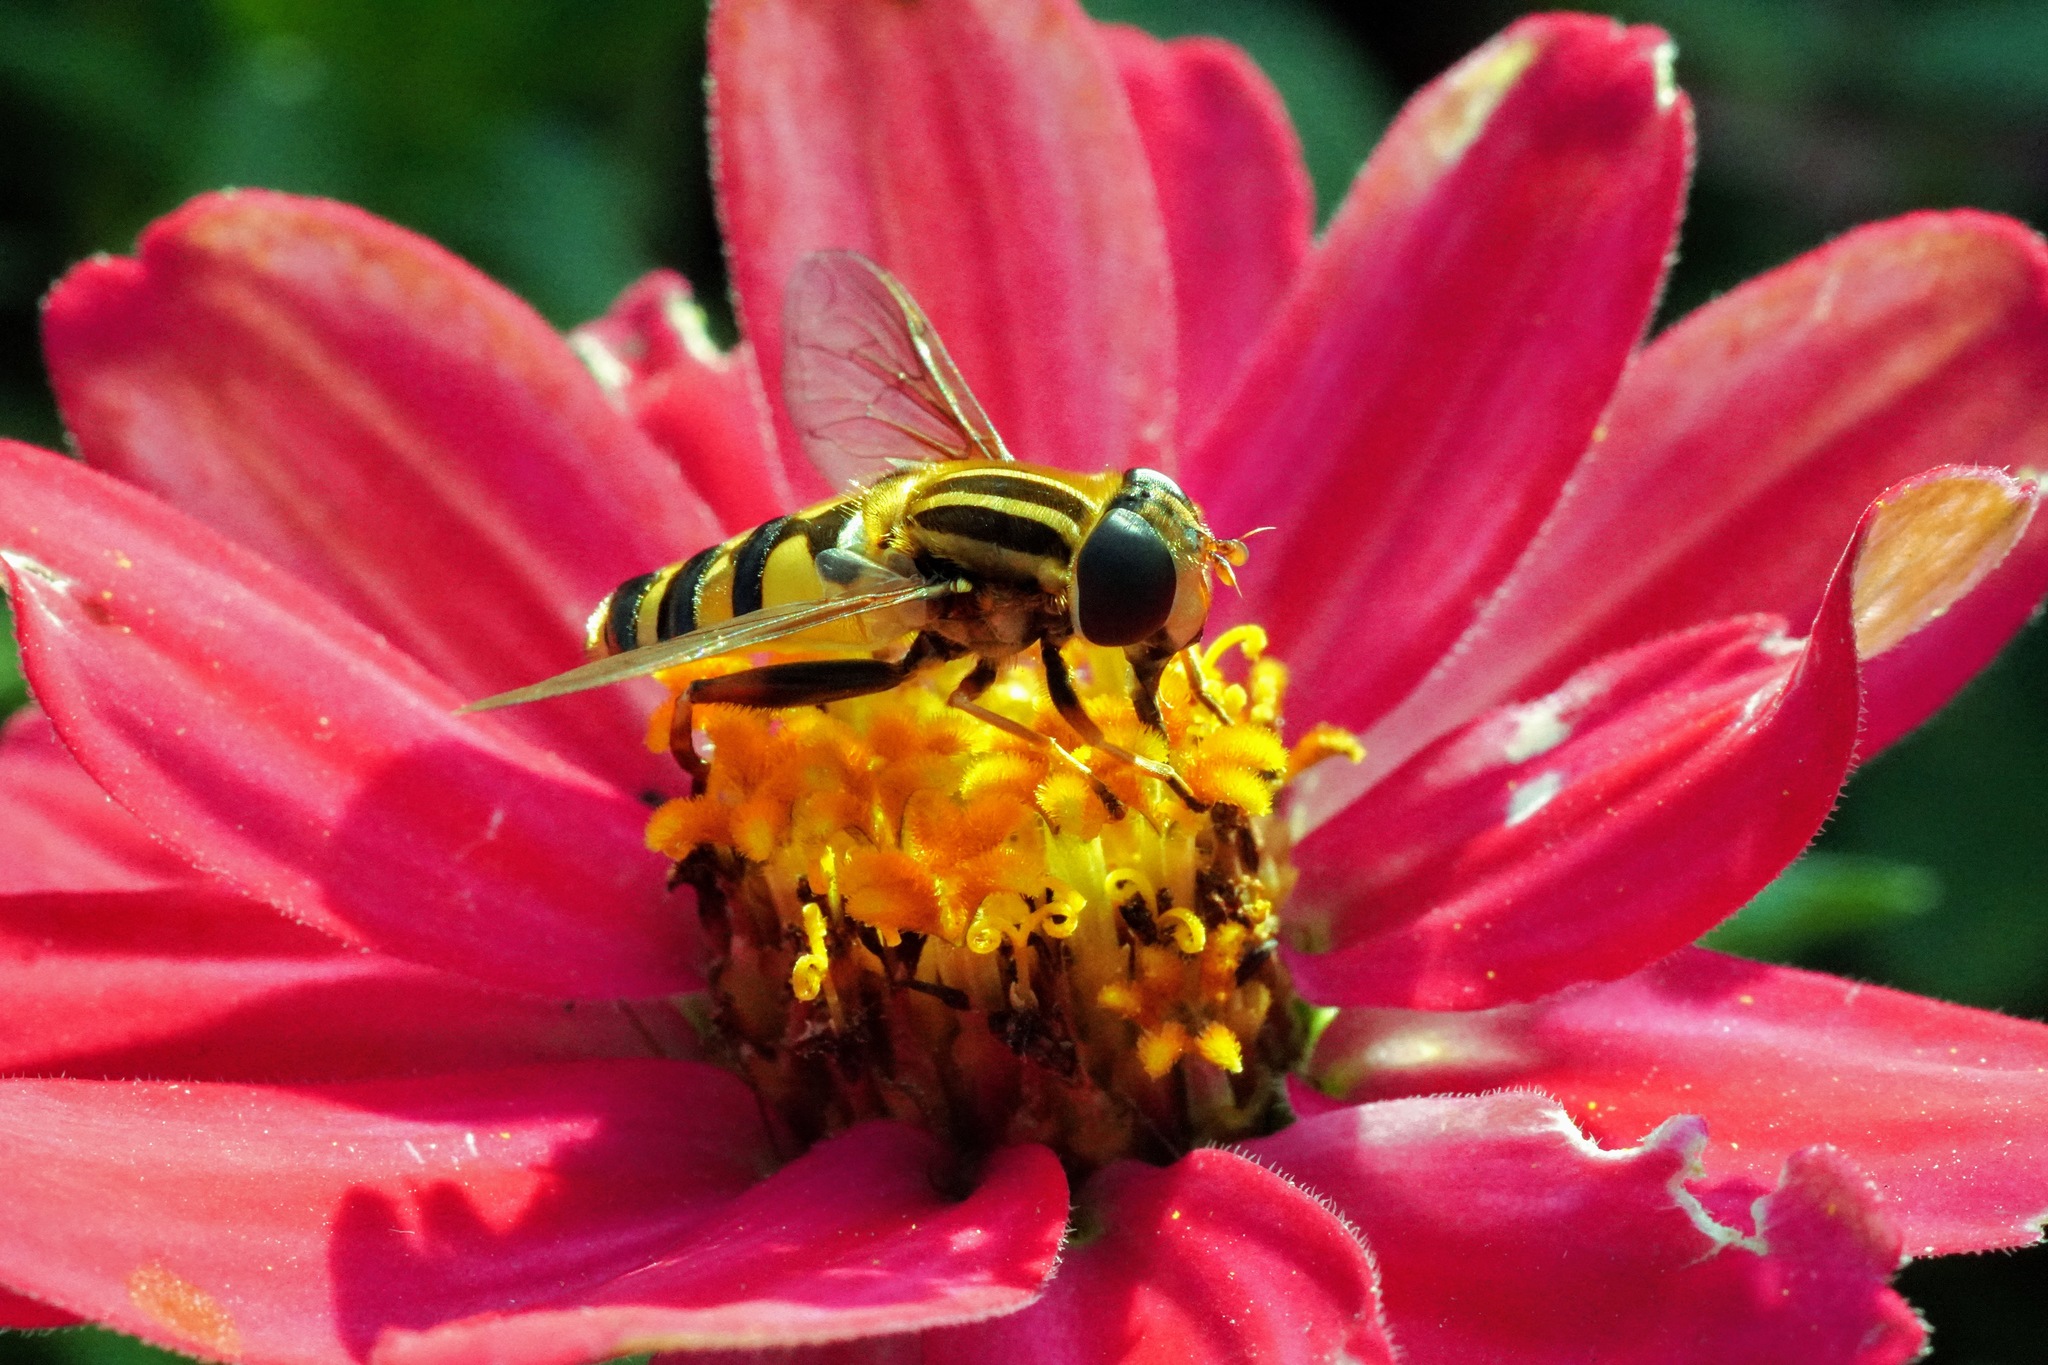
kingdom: Animalia
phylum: Arthropoda
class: Insecta
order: Diptera
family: Syrphidae
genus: Sericomyia
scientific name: Sericomyia chalcopyga
